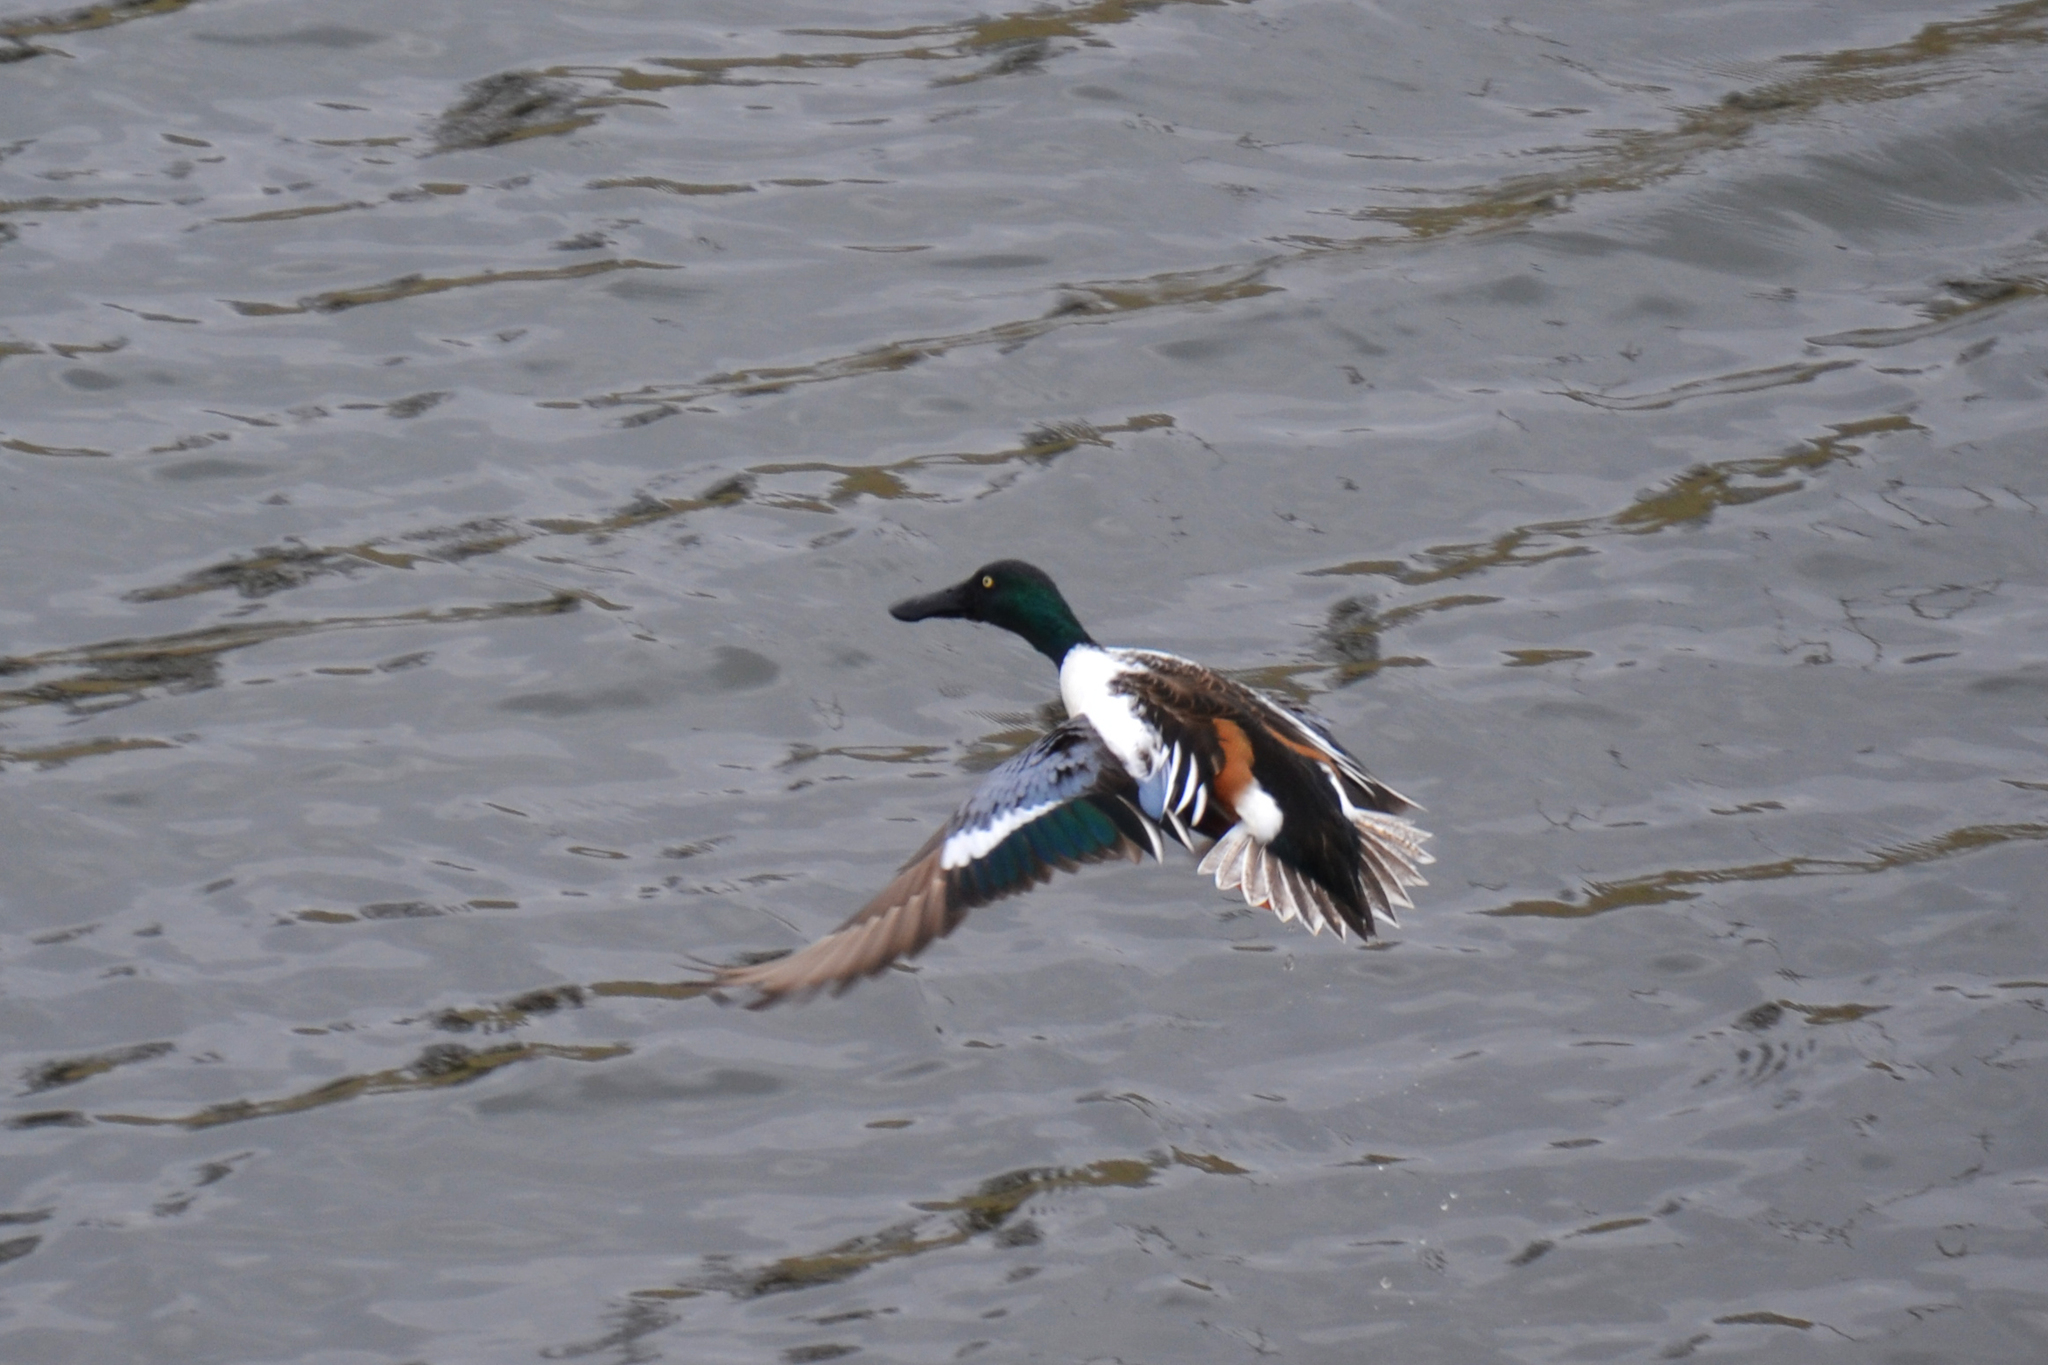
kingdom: Animalia
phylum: Chordata
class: Aves
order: Anseriformes
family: Anatidae
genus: Spatula
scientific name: Spatula clypeata
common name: Northern shoveler
